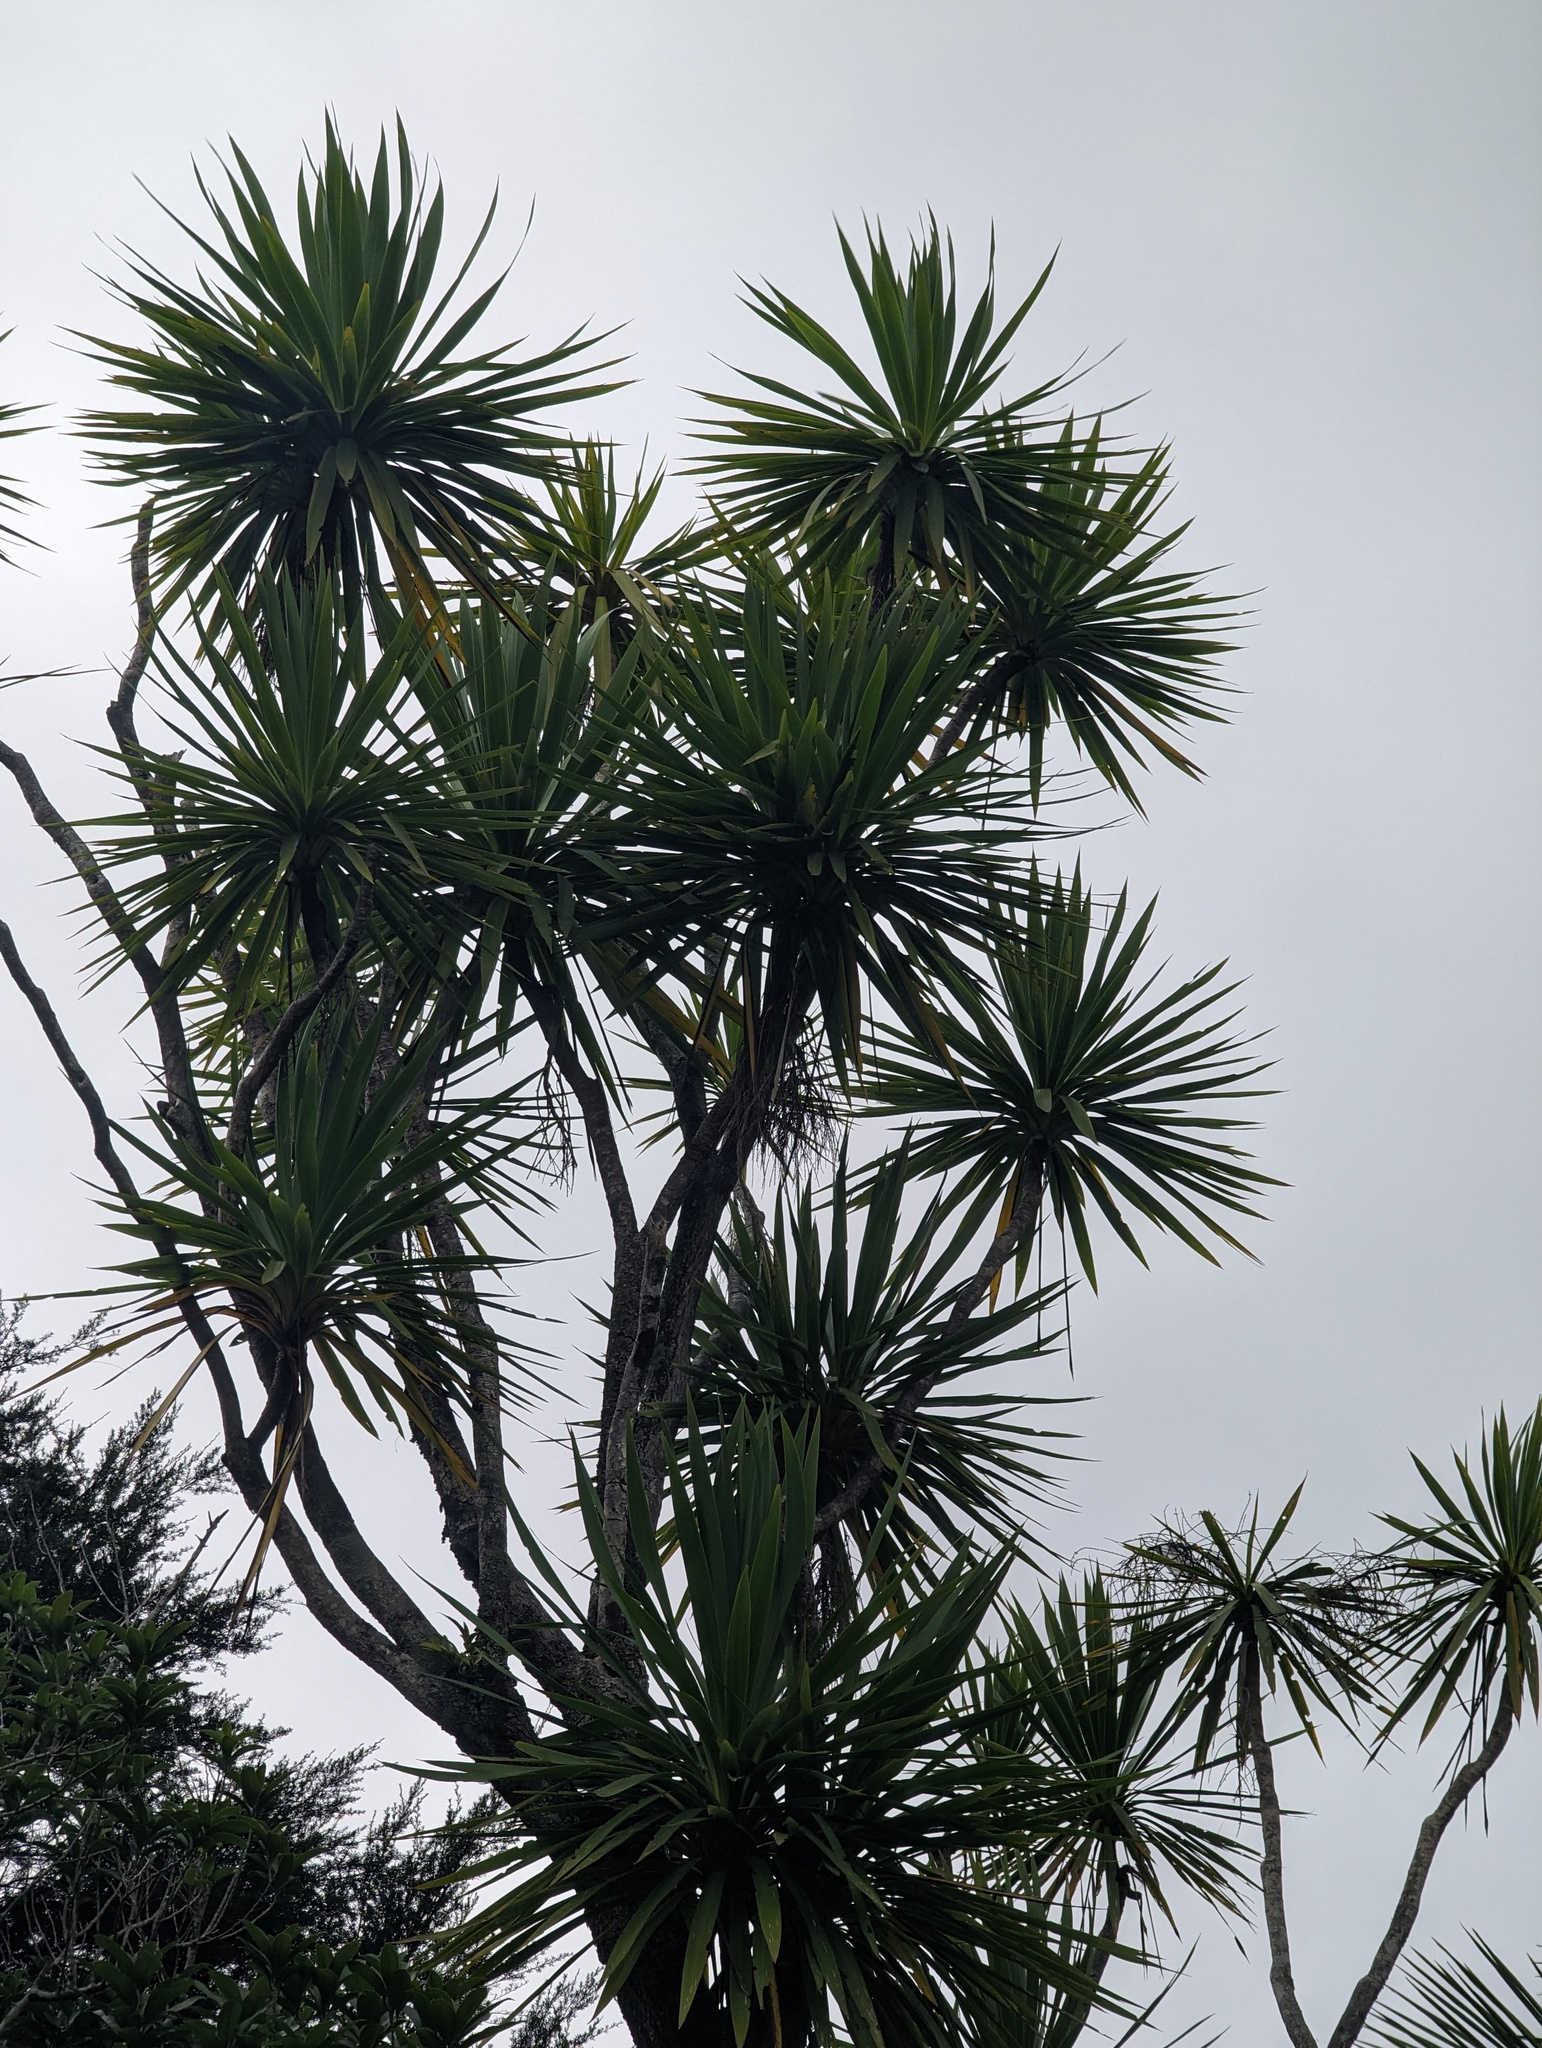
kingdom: Plantae
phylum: Tracheophyta
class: Liliopsida
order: Asparagales
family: Asparagaceae
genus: Cordyline
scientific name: Cordyline australis
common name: Cabbage-palm
